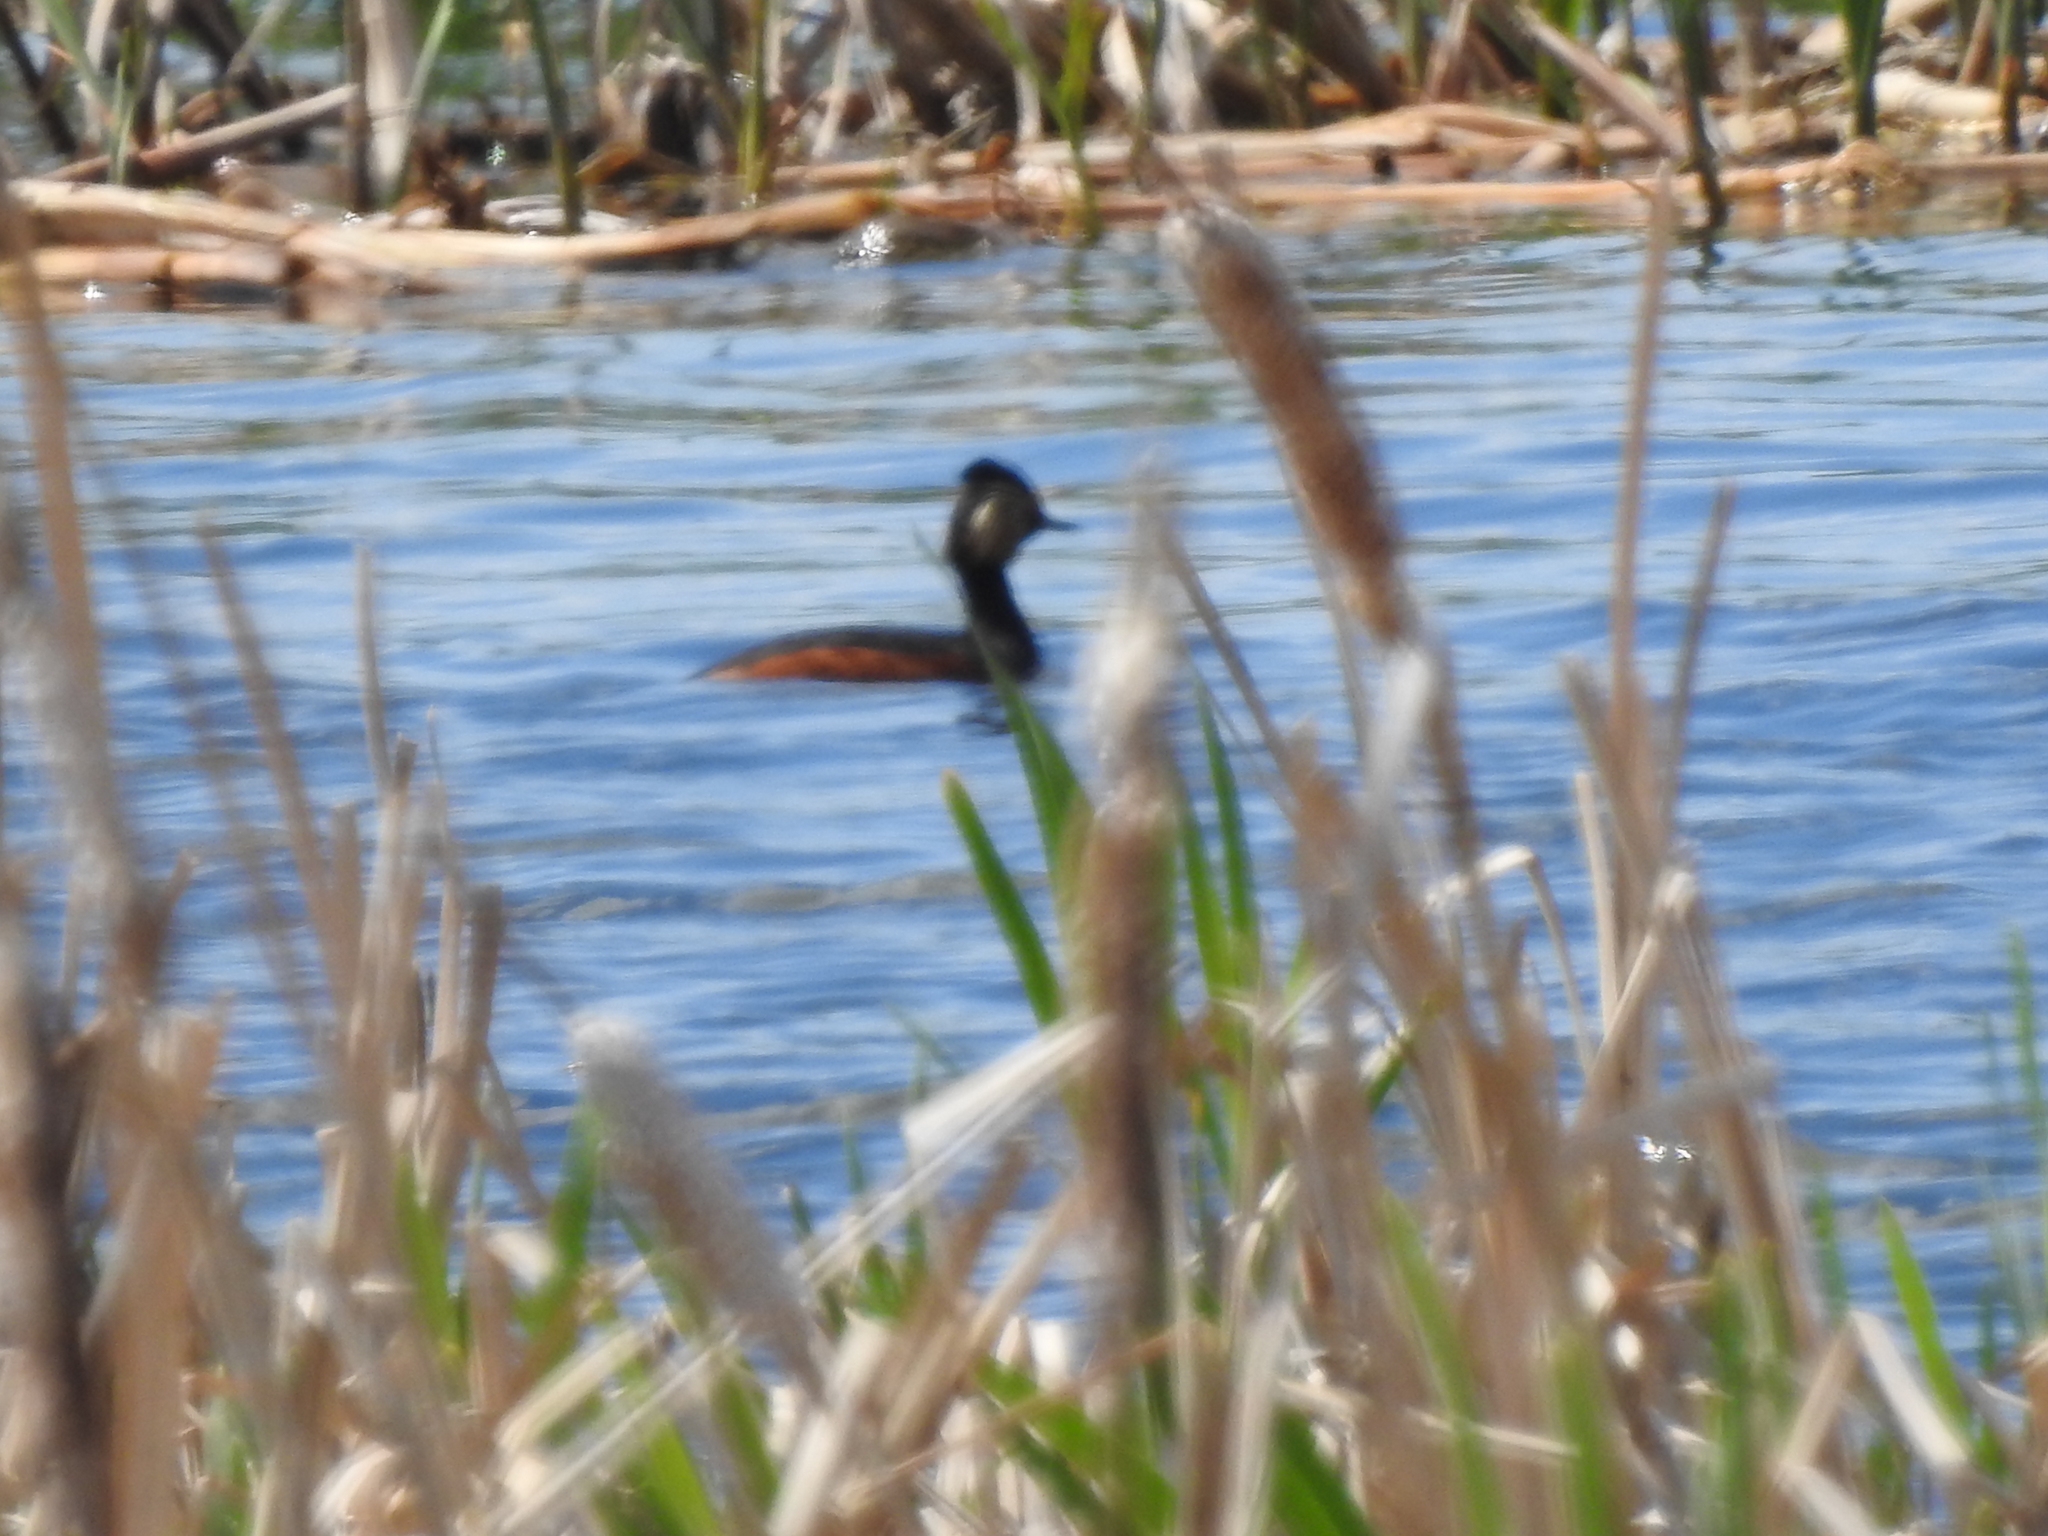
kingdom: Animalia
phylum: Chordata
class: Aves
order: Podicipediformes
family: Podicipedidae
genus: Podiceps
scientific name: Podiceps nigricollis
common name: Black-necked grebe
